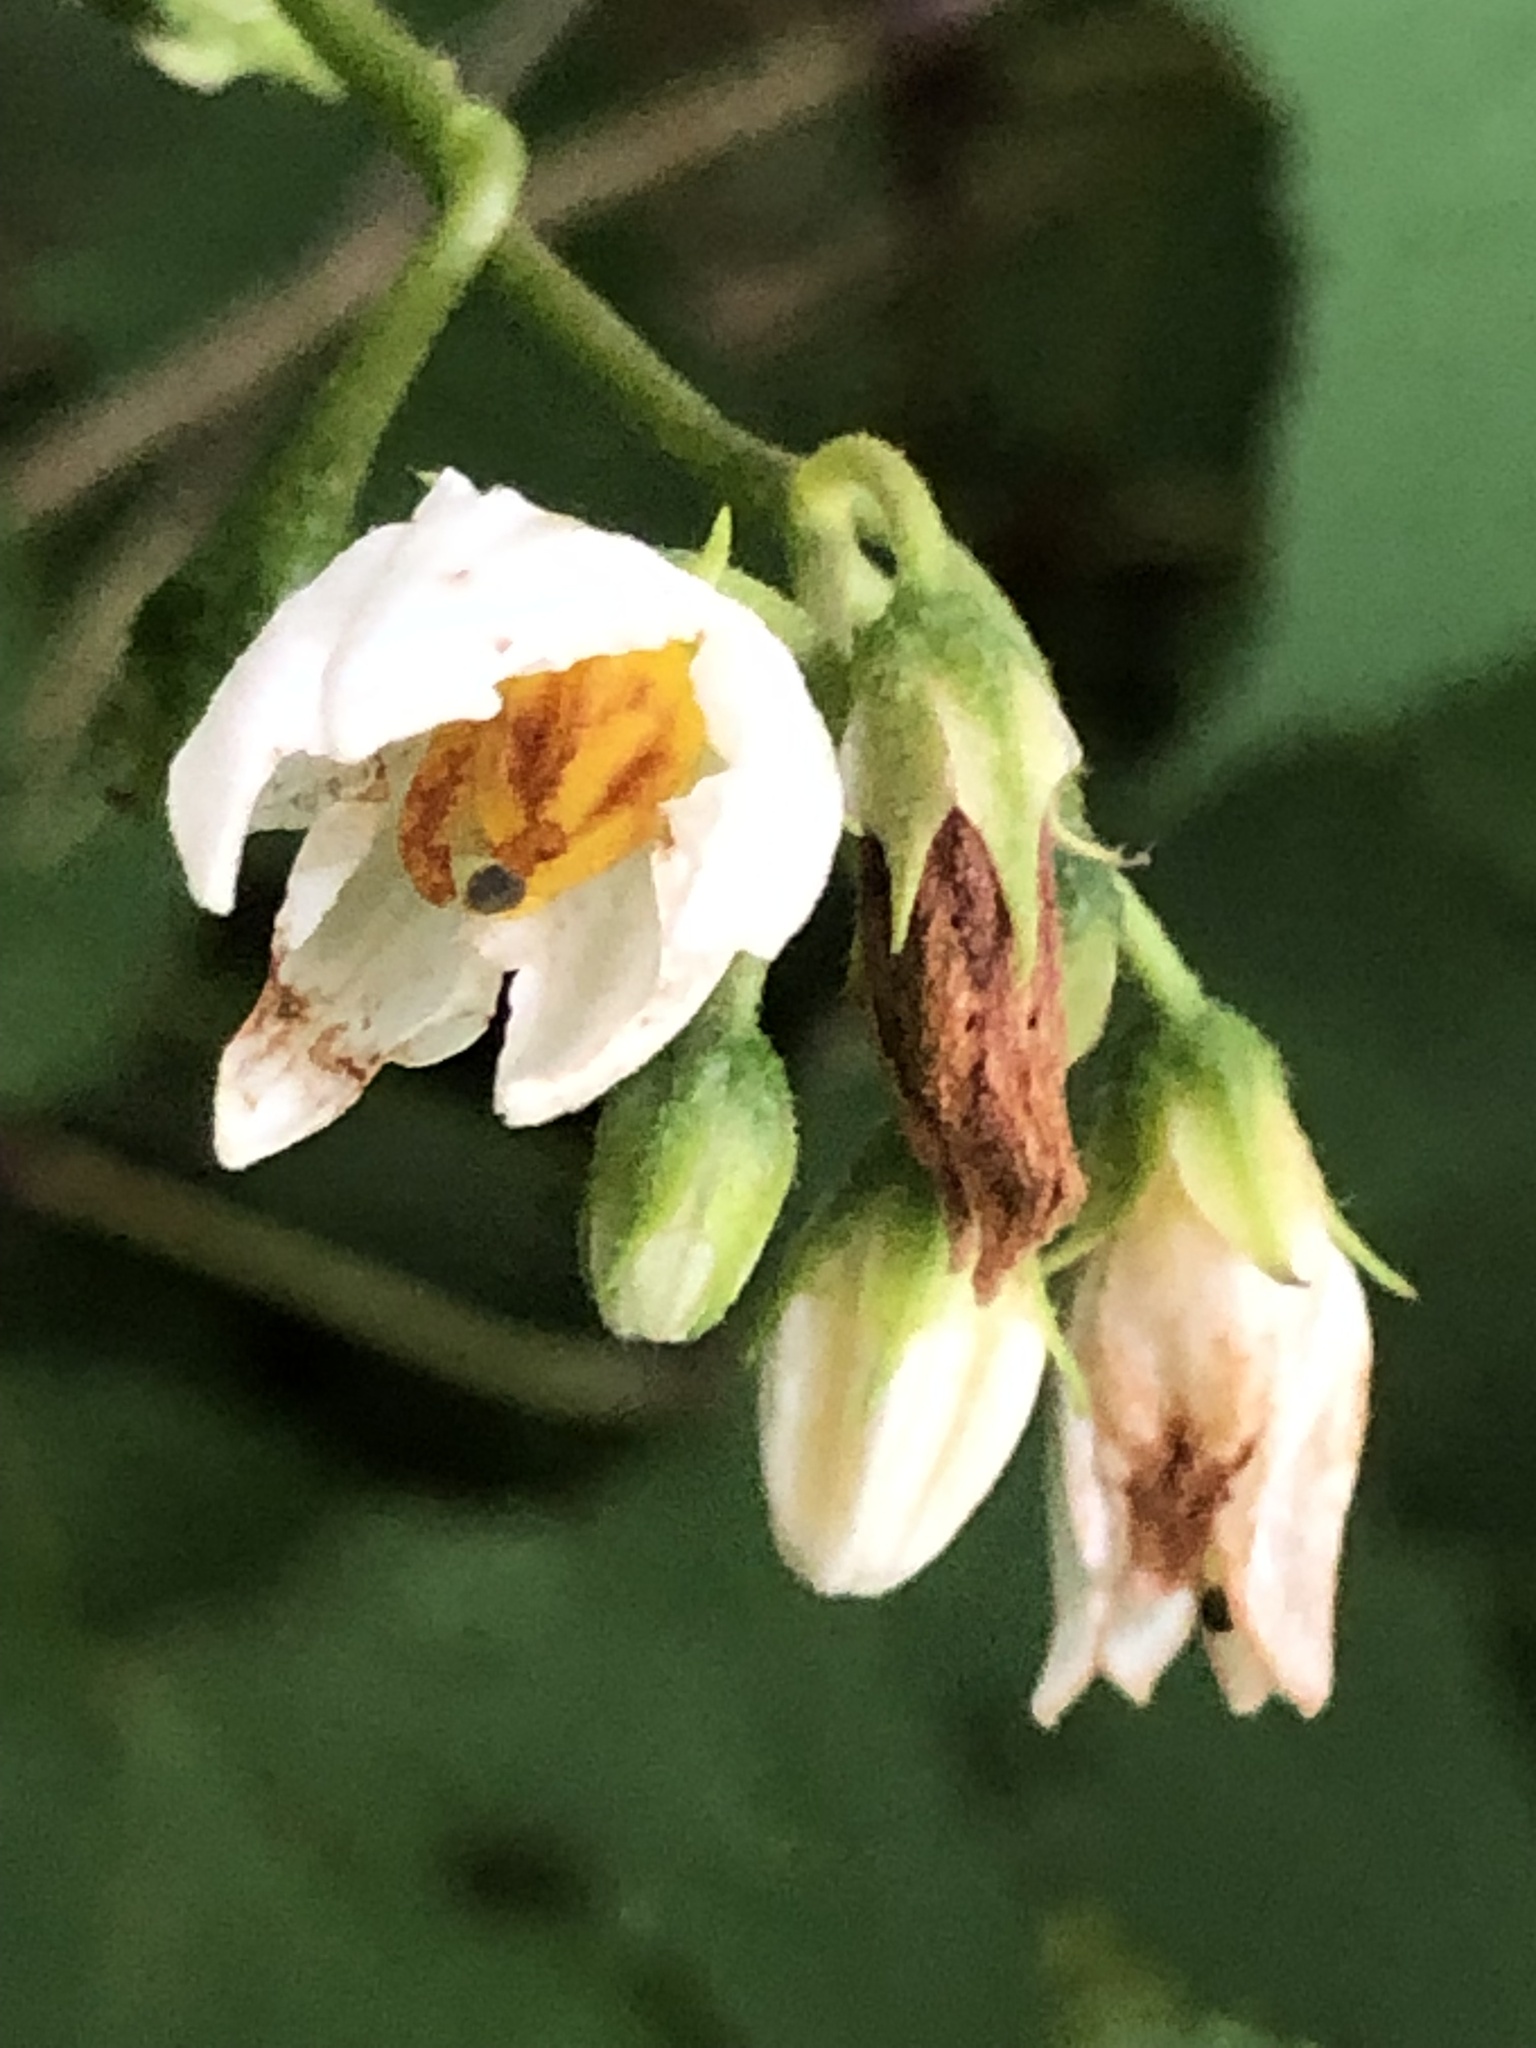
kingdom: Plantae
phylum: Tracheophyta
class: Magnoliopsida
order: Solanales
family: Solanaceae
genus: Solanum
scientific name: Solanum carolinense
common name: Horse-nettle
